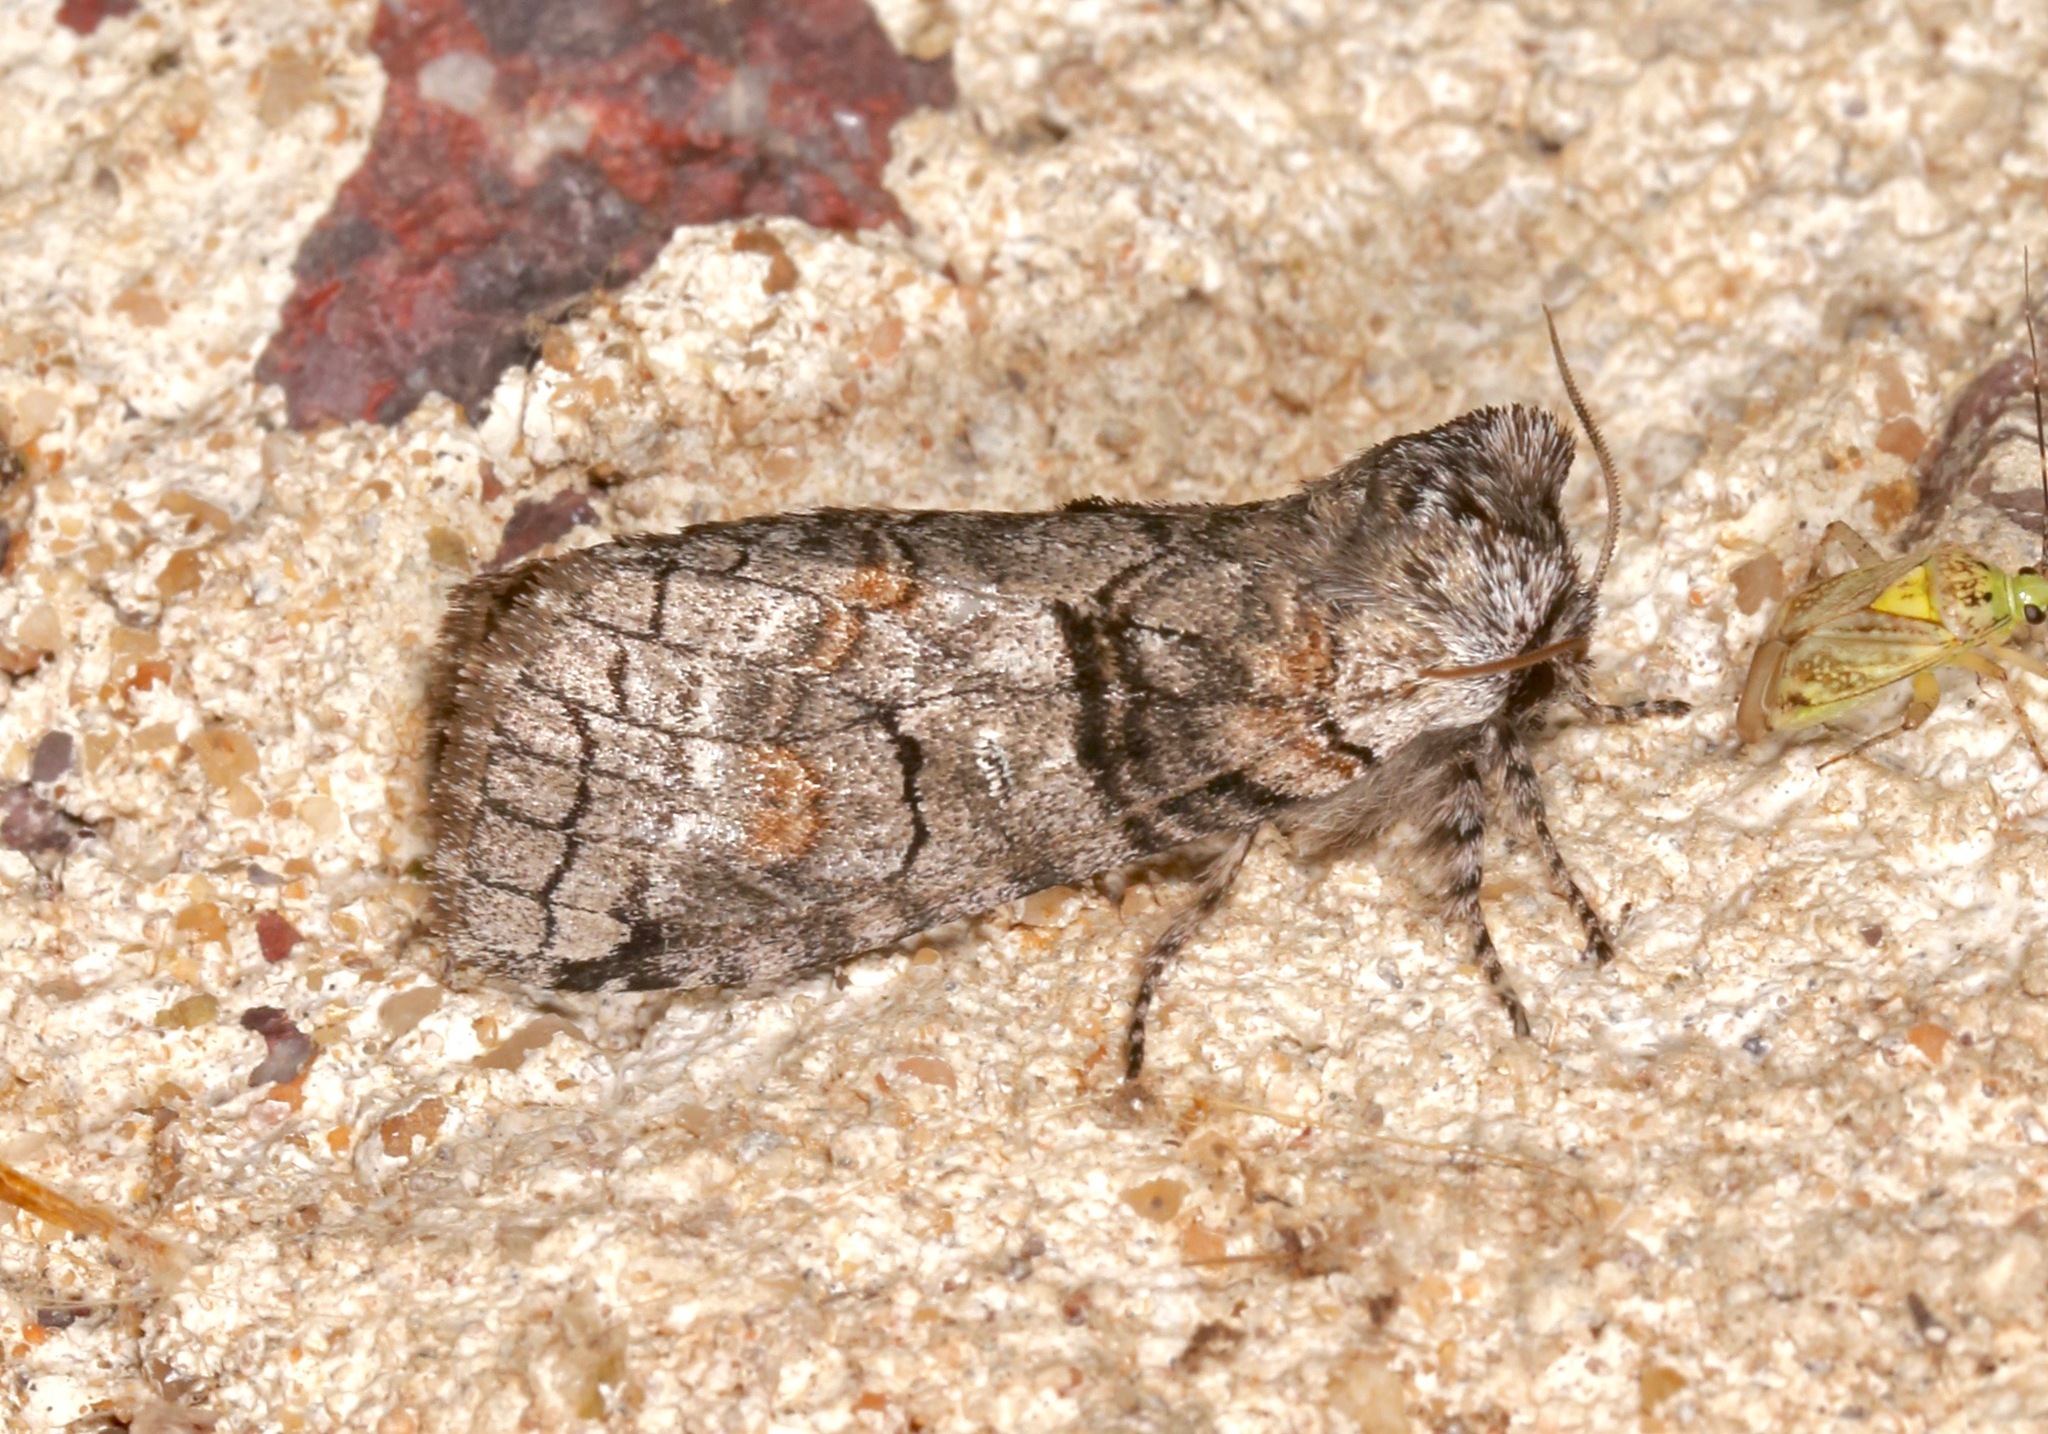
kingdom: Animalia
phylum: Arthropoda
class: Insecta
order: Lepidoptera
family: Notodontidae
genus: Afilia
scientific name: Afilia oslari
